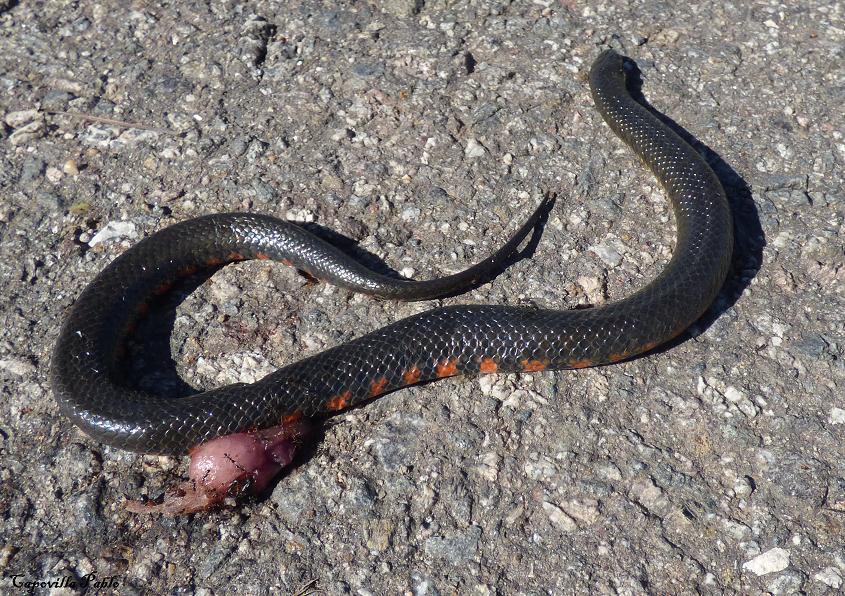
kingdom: Animalia
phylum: Chordata
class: Squamata
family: Colubridae
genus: Helicops
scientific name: Helicops leopardinus
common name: Leopard keelback
